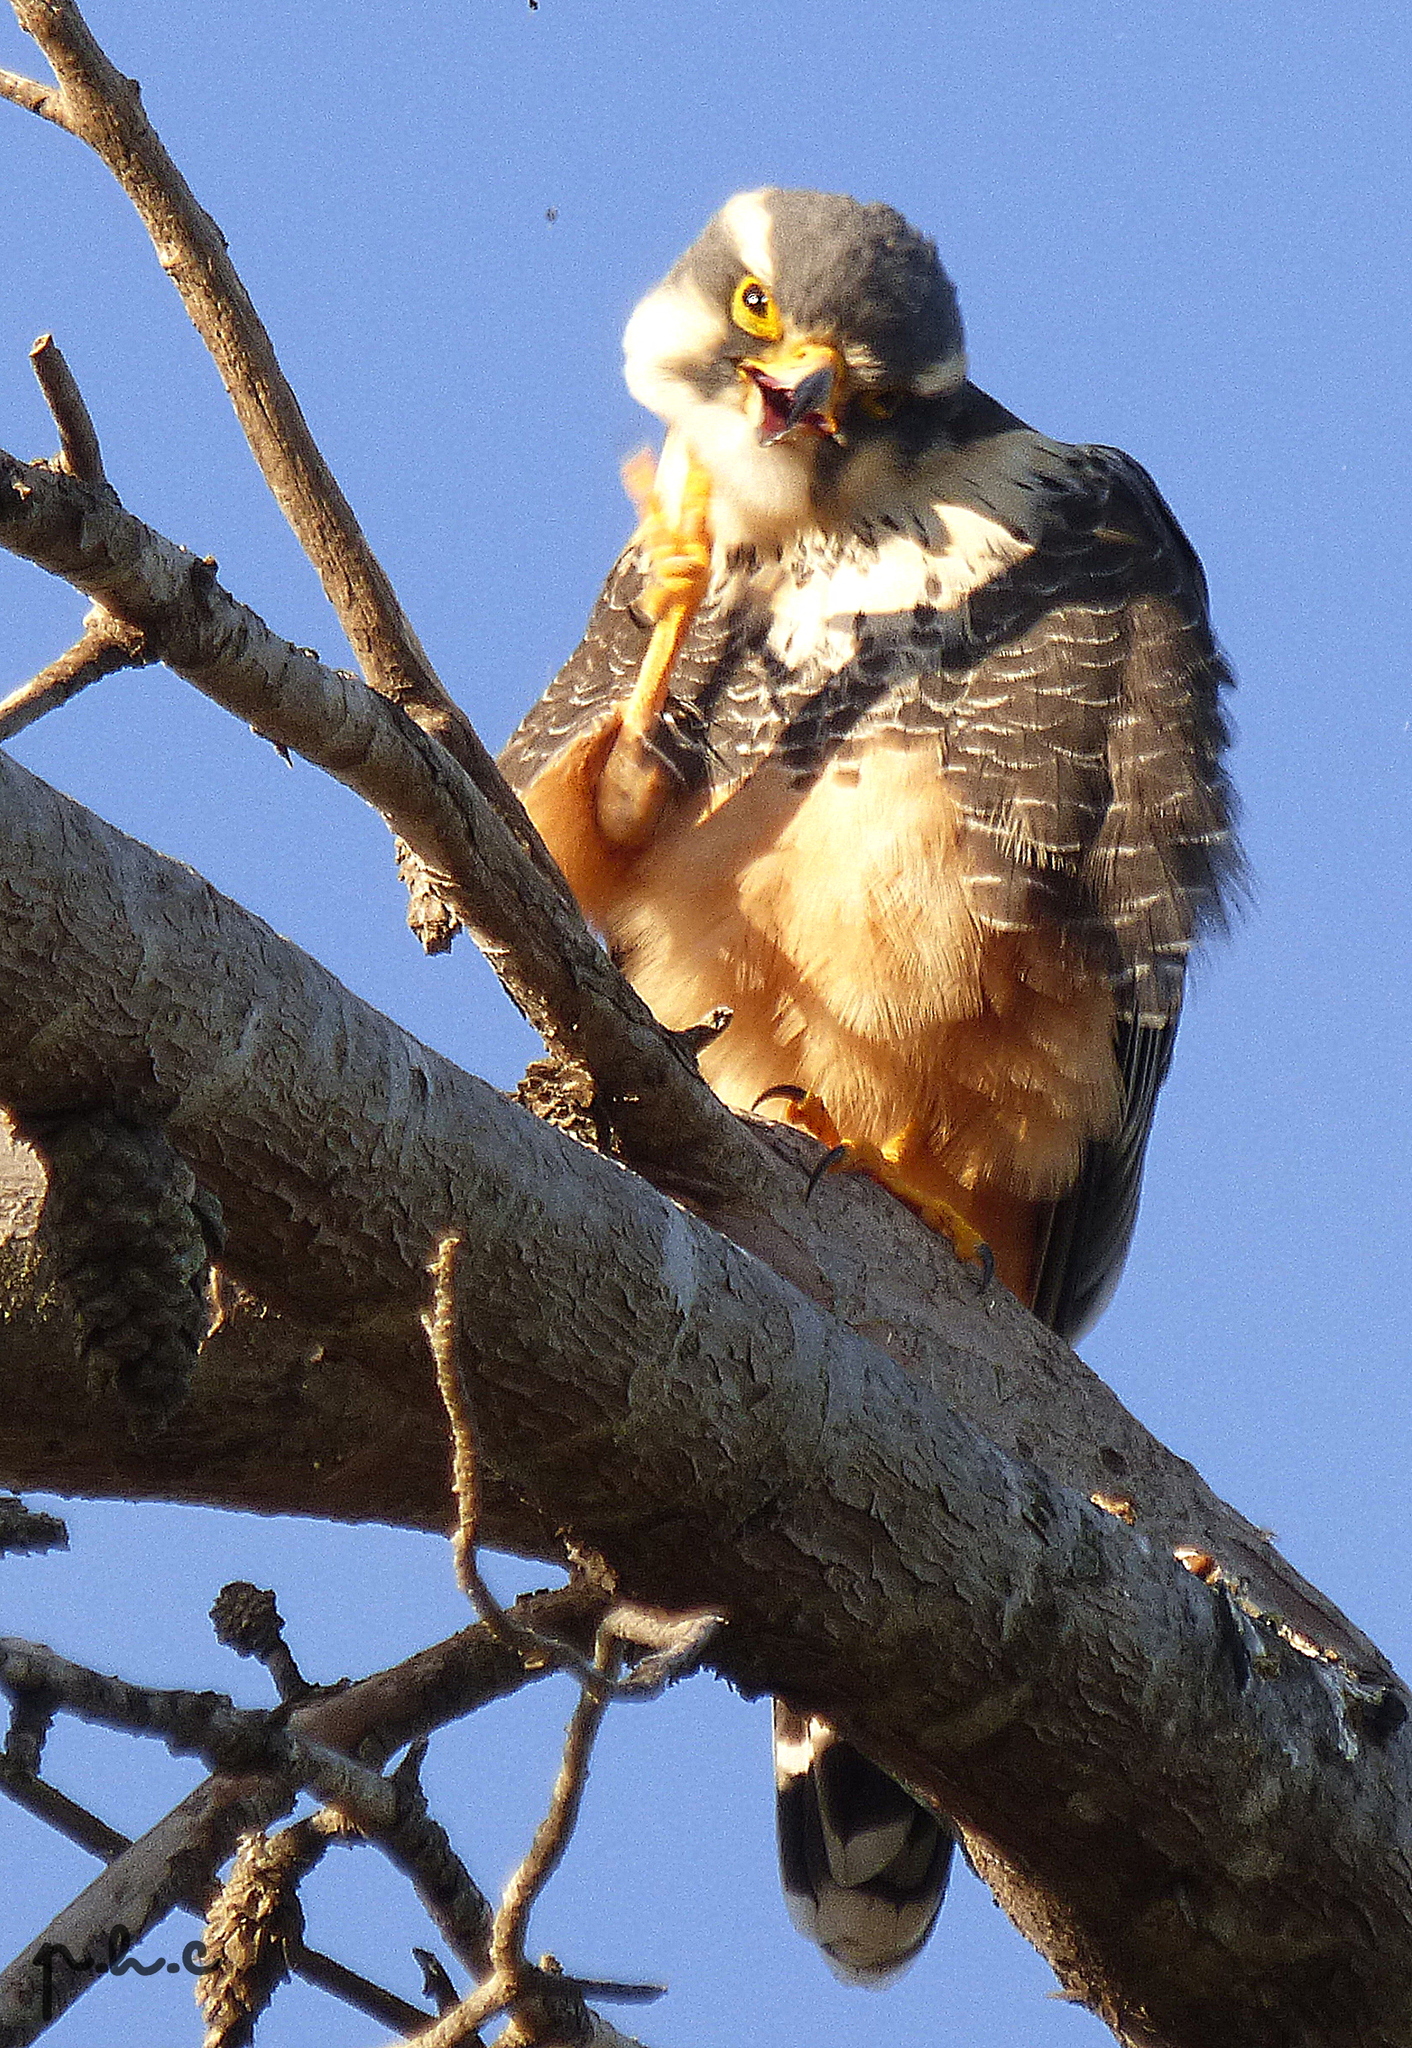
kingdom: Animalia
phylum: Chordata
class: Aves
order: Falconiformes
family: Falconidae
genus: Falco
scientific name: Falco femoralis
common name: Aplomado falcon
